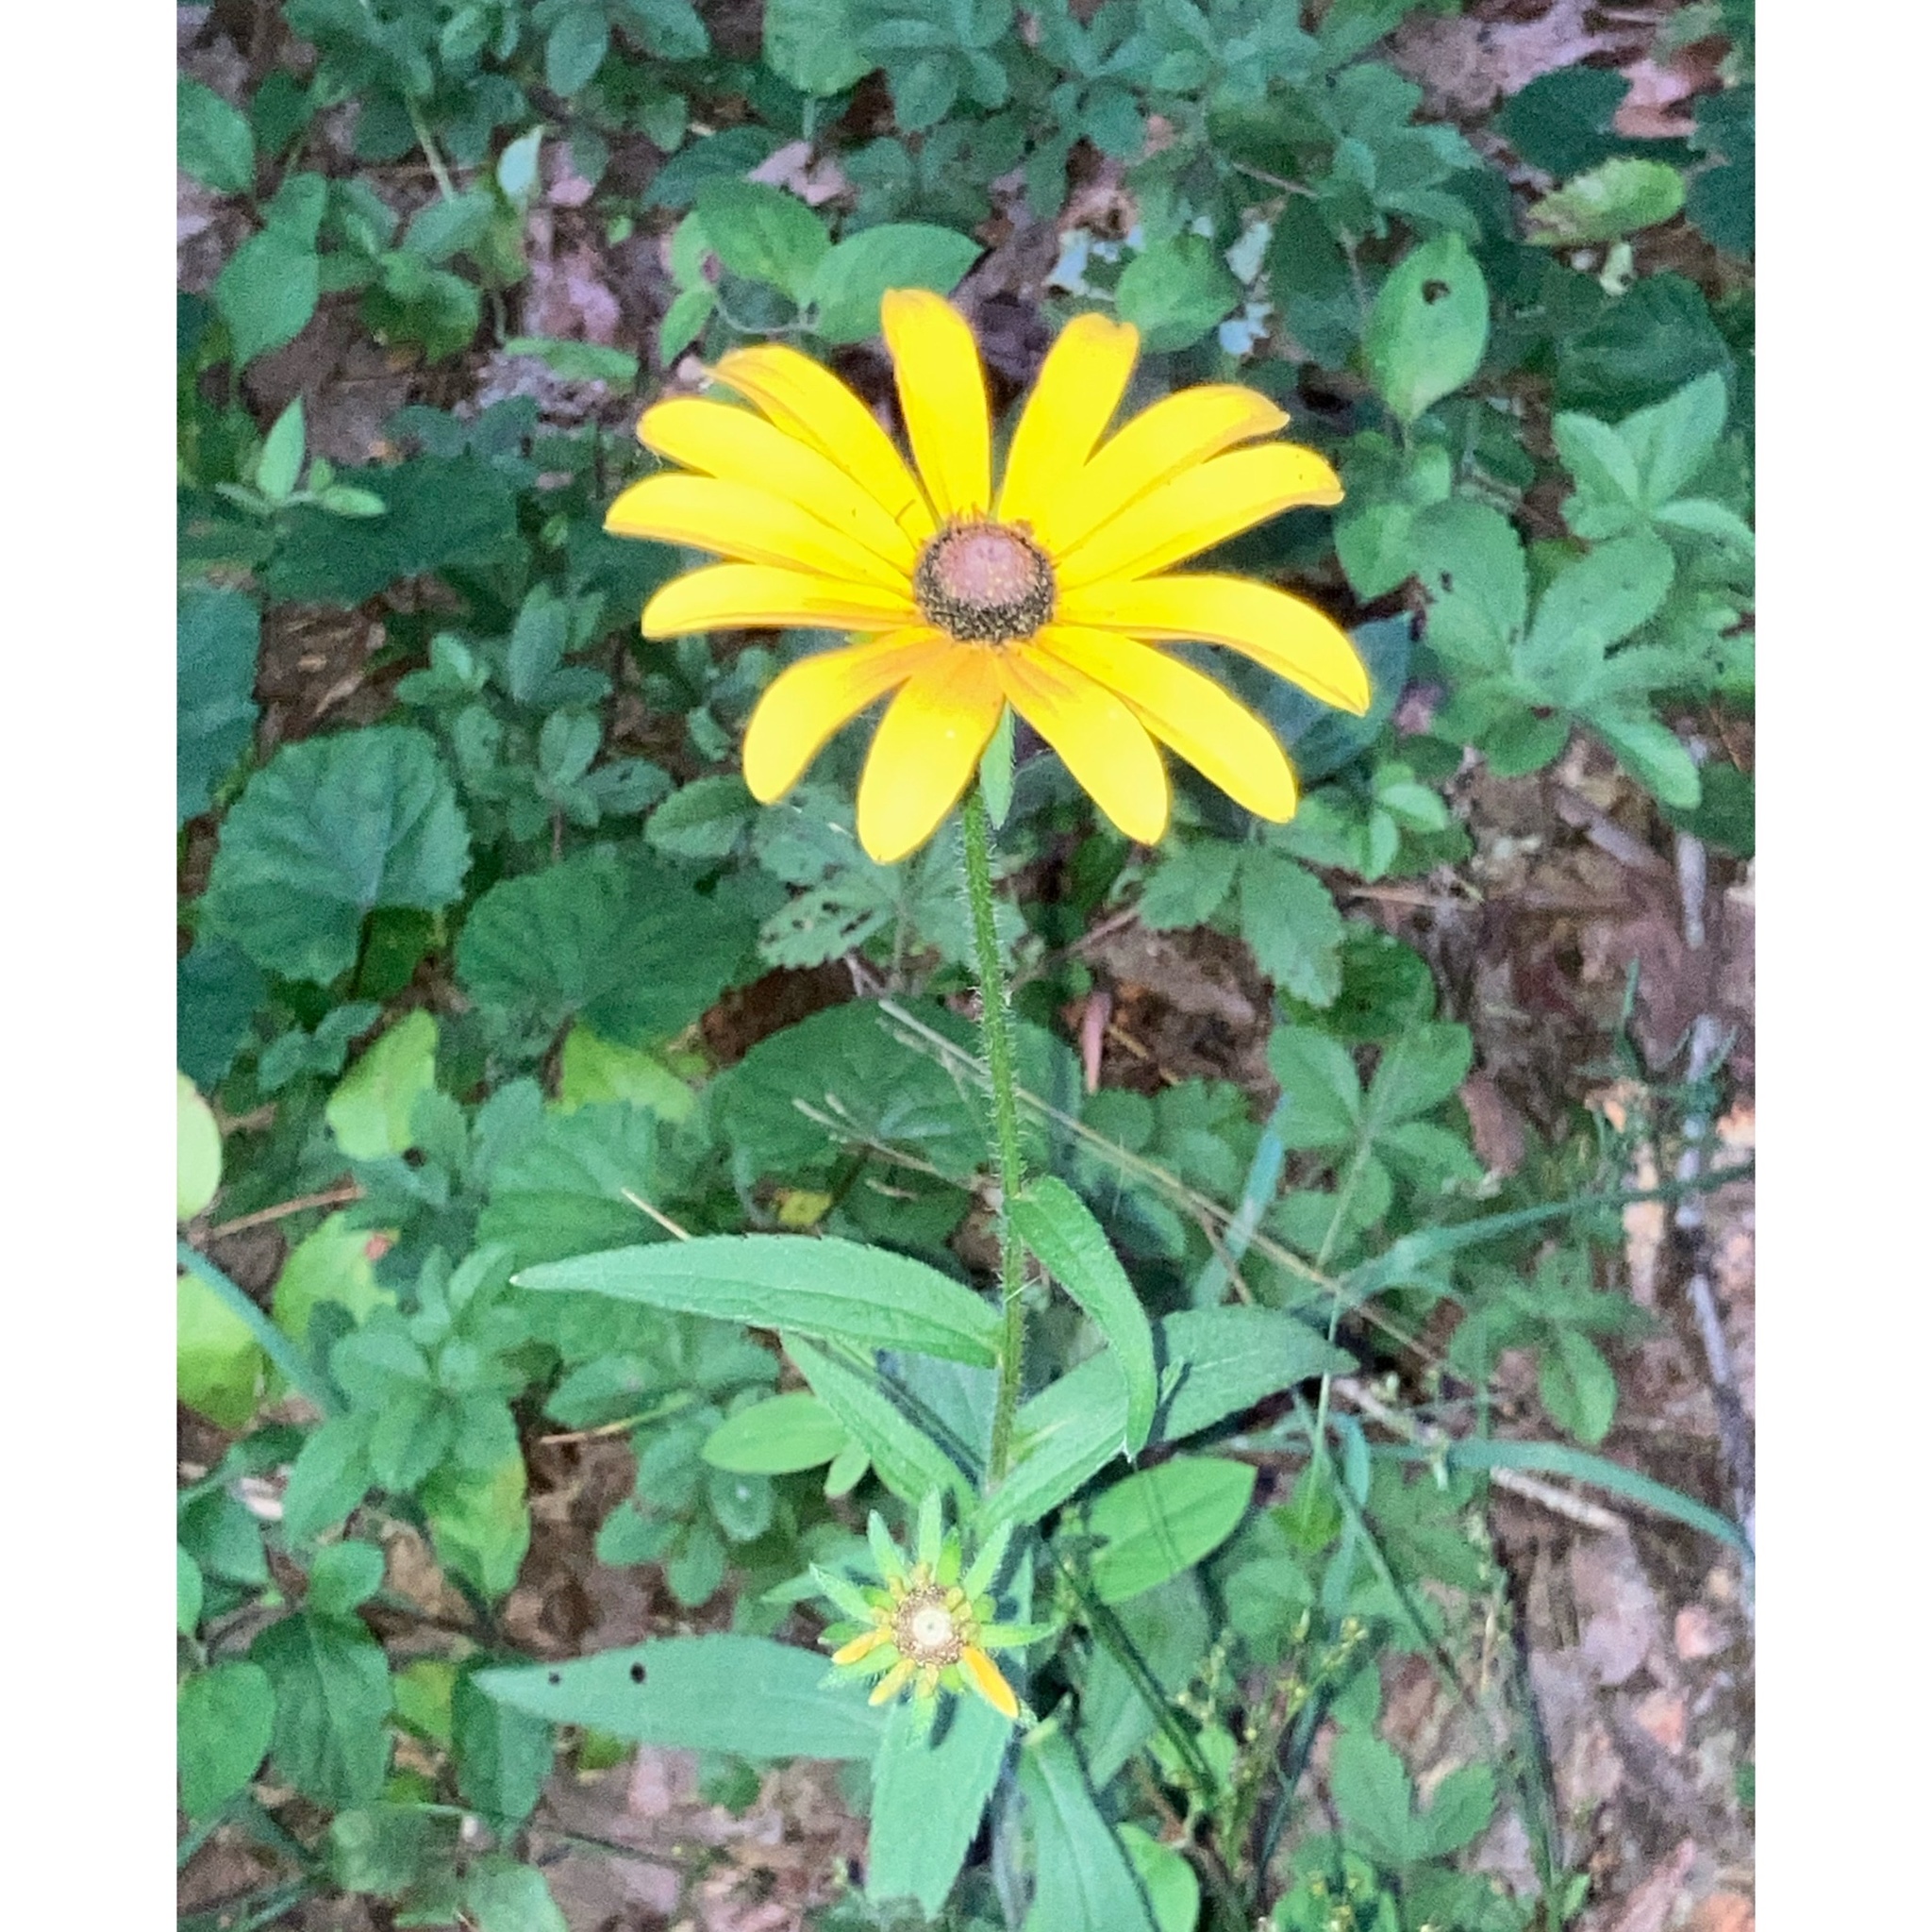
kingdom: Plantae
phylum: Tracheophyta
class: Magnoliopsida
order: Asterales
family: Asteraceae
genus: Rudbeckia
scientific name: Rudbeckia hirta
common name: Black-eyed-susan
